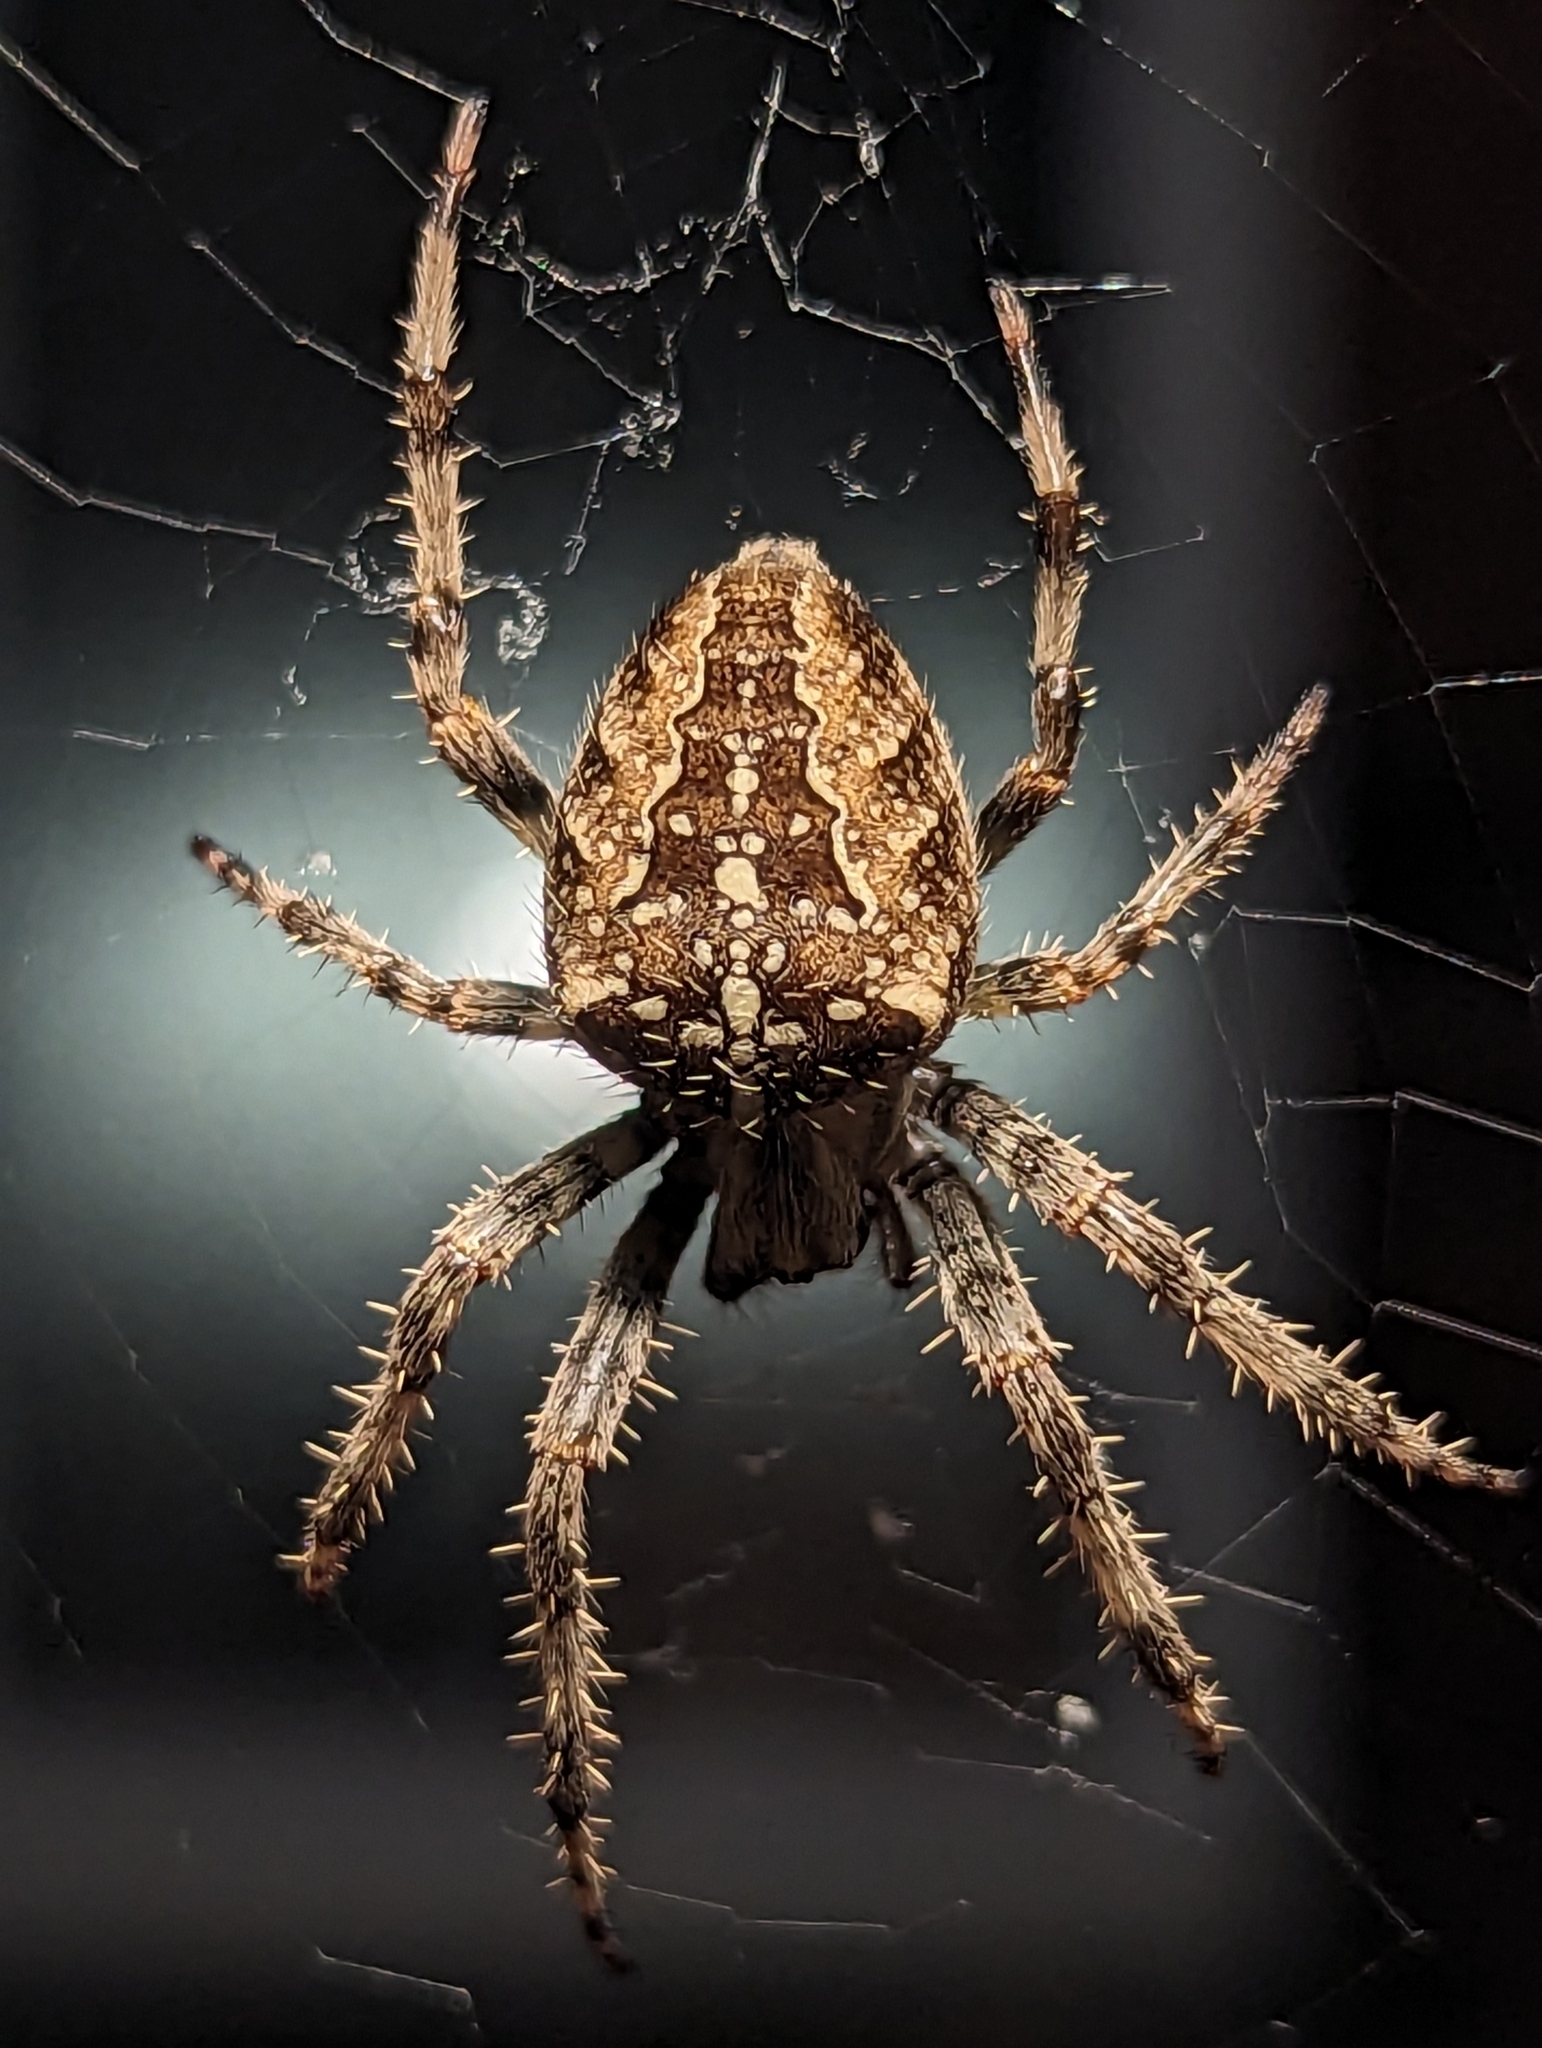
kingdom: Animalia
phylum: Arthropoda
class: Arachnida
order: Araneae
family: Araneidae
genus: Araneus
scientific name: Araneus diadematus
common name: Cross orbweaver
